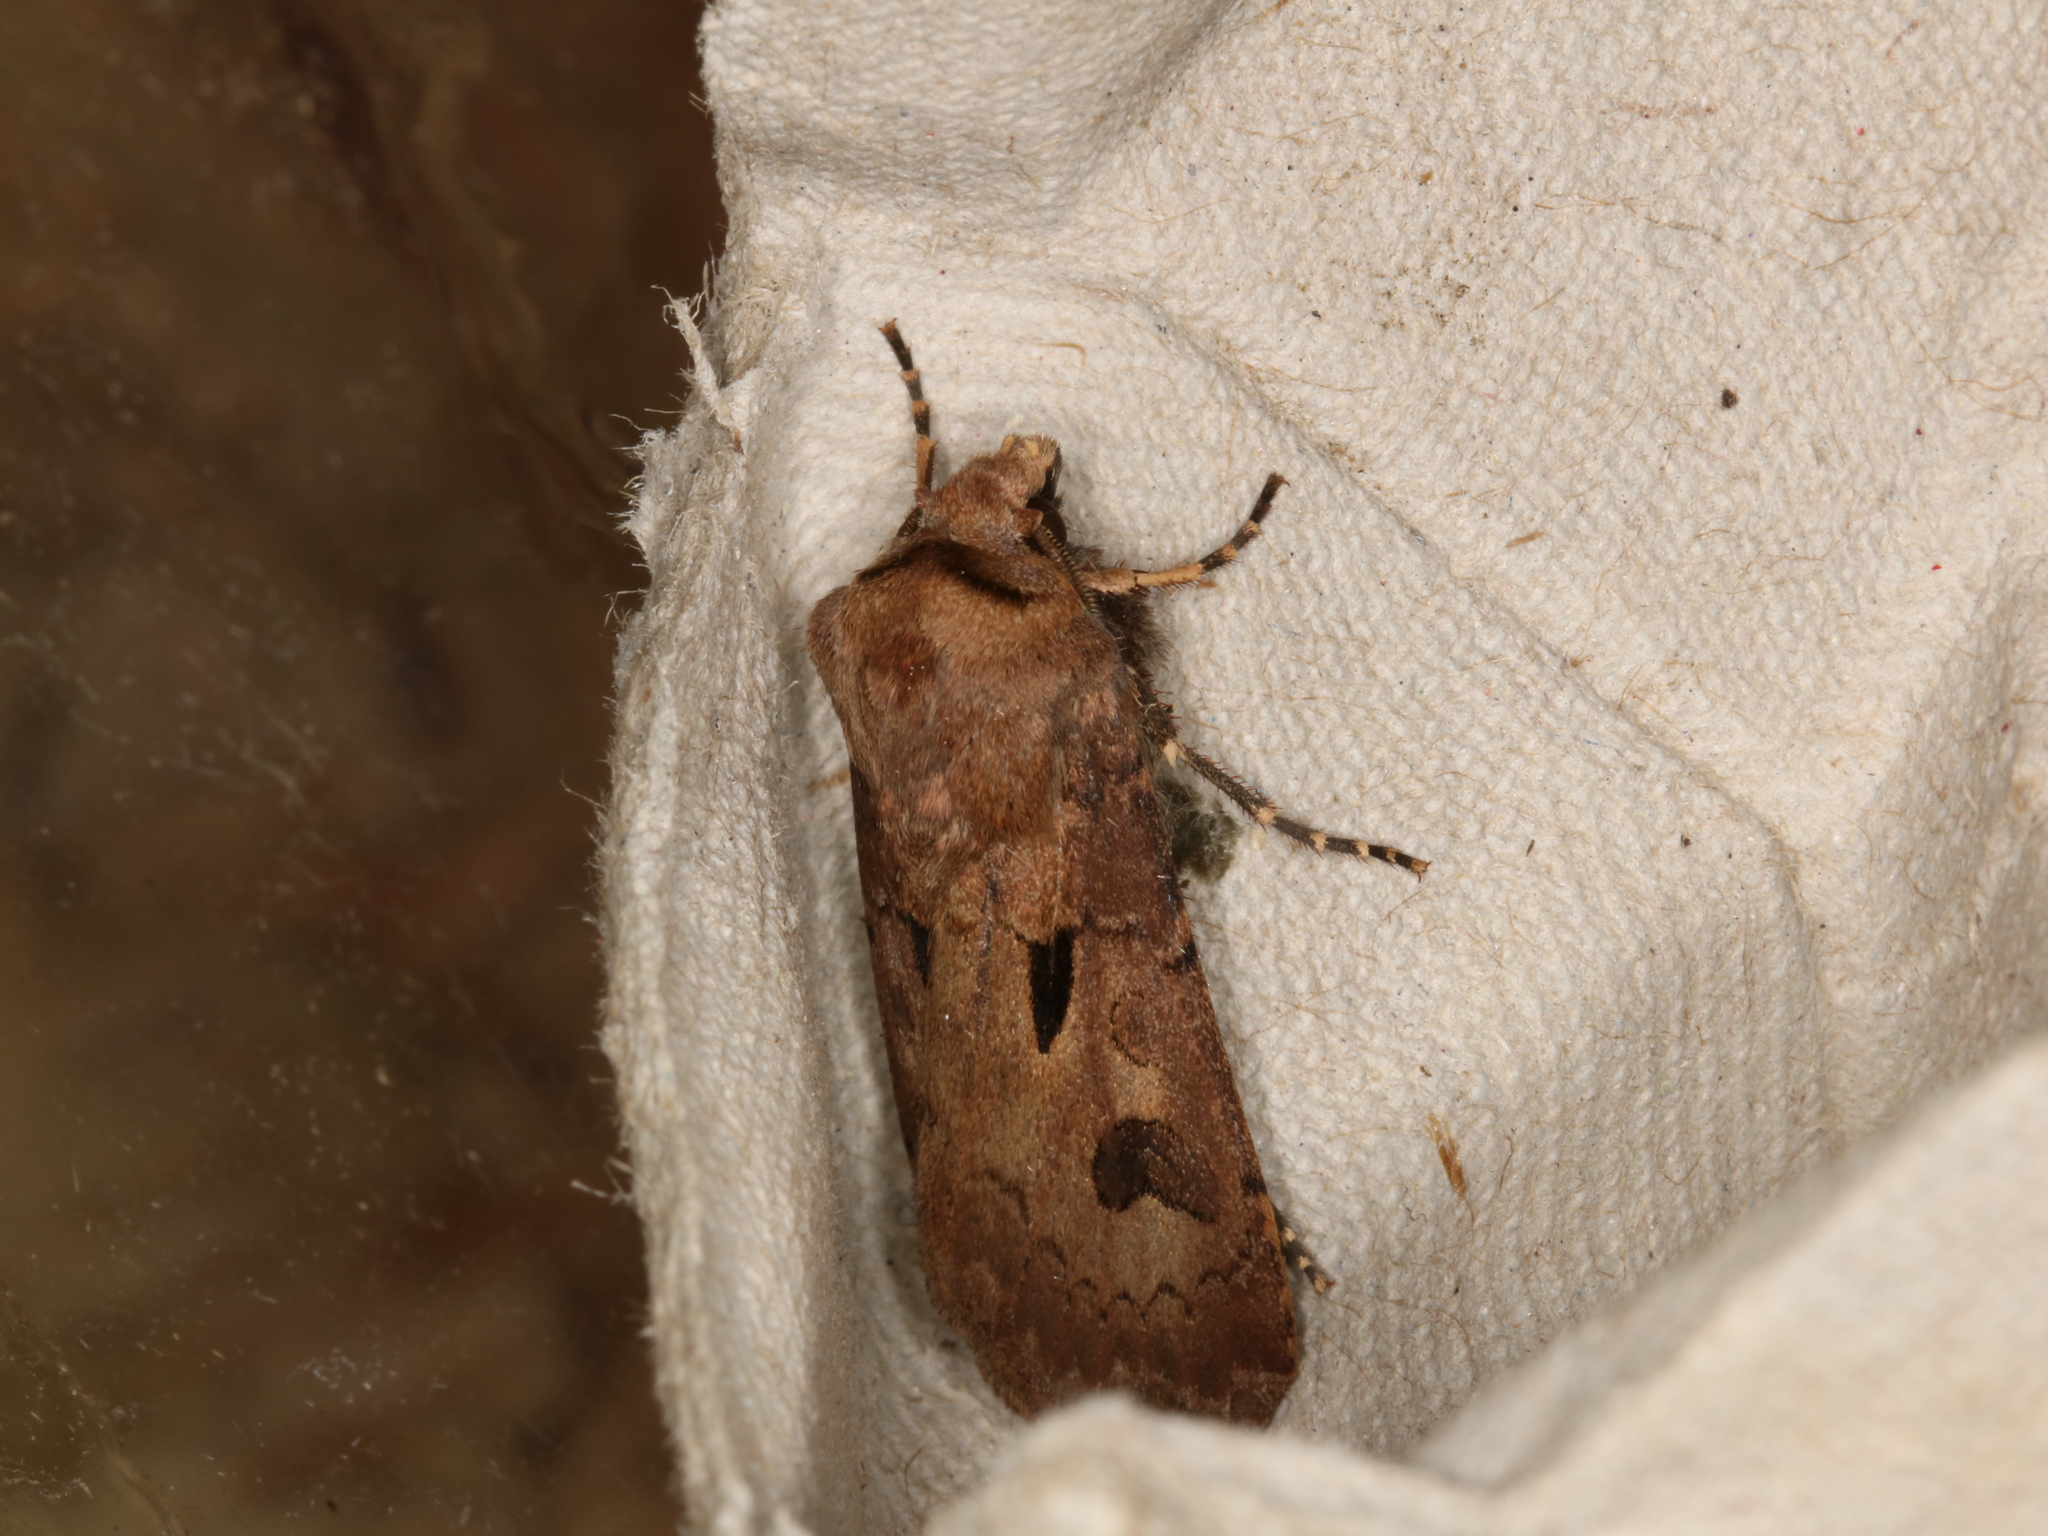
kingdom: Animalia
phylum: Arthropoda
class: Insecta
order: Lepidoptera
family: Noctuidae
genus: Agrotis
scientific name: Agrotis exclamationis
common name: Heart and dart
